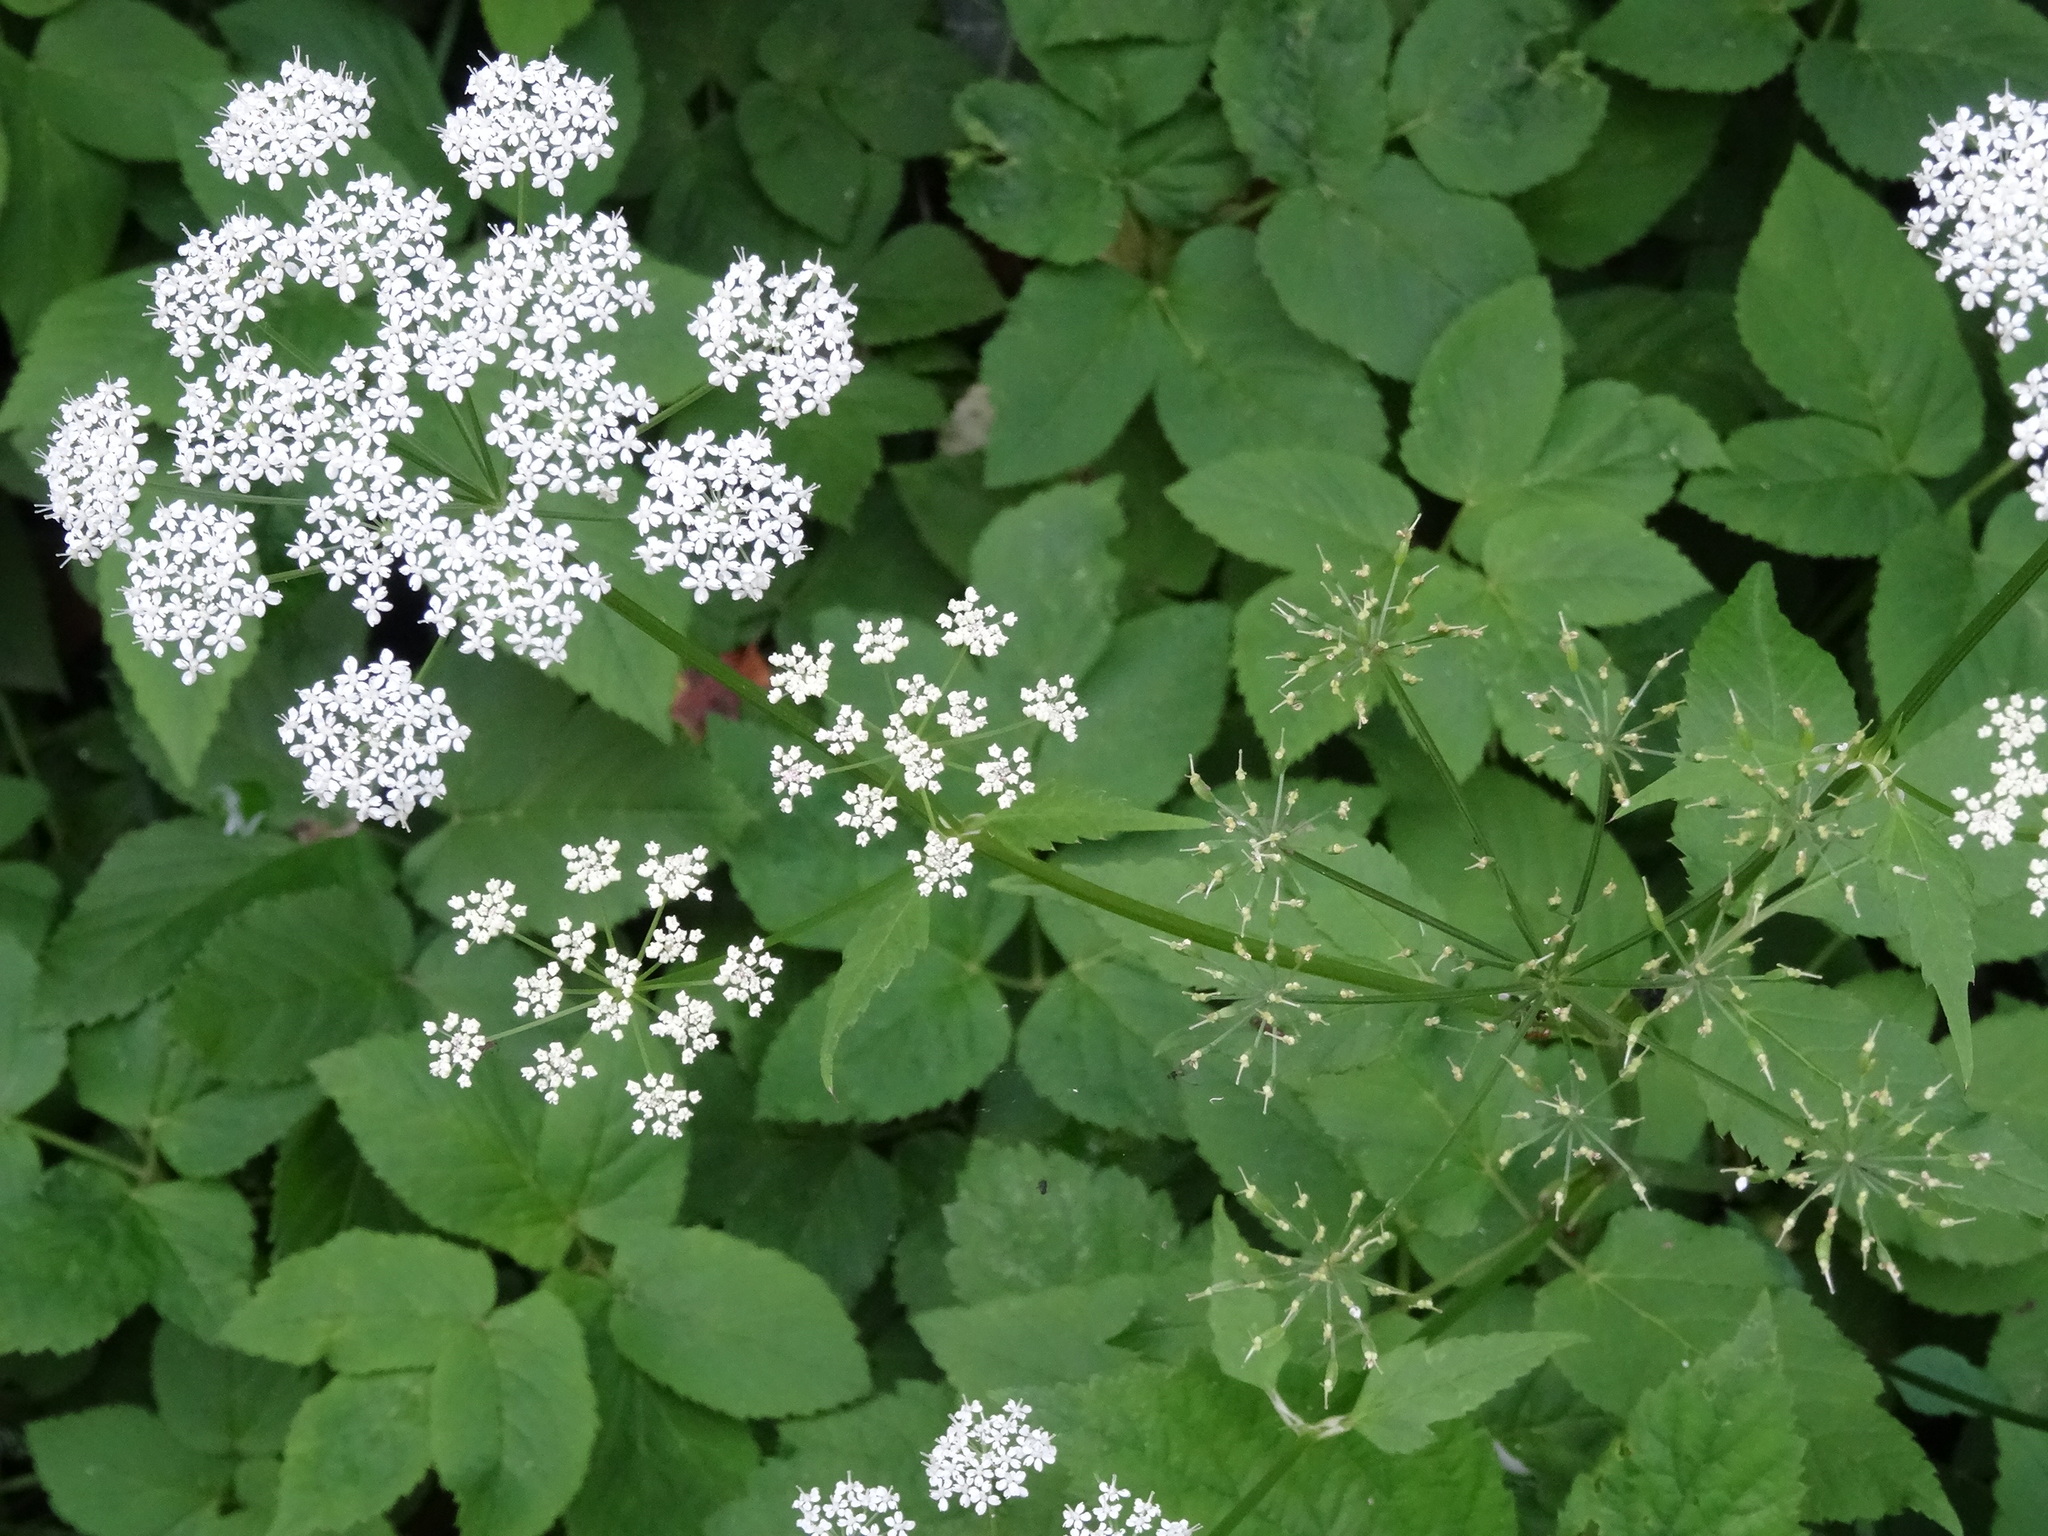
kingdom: Plantae
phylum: Tracheophyta
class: Magnoliopsida
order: Apiales
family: Apiaceae
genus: Aegopodium
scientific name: Aegopodium podagraria
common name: Ground-elder
